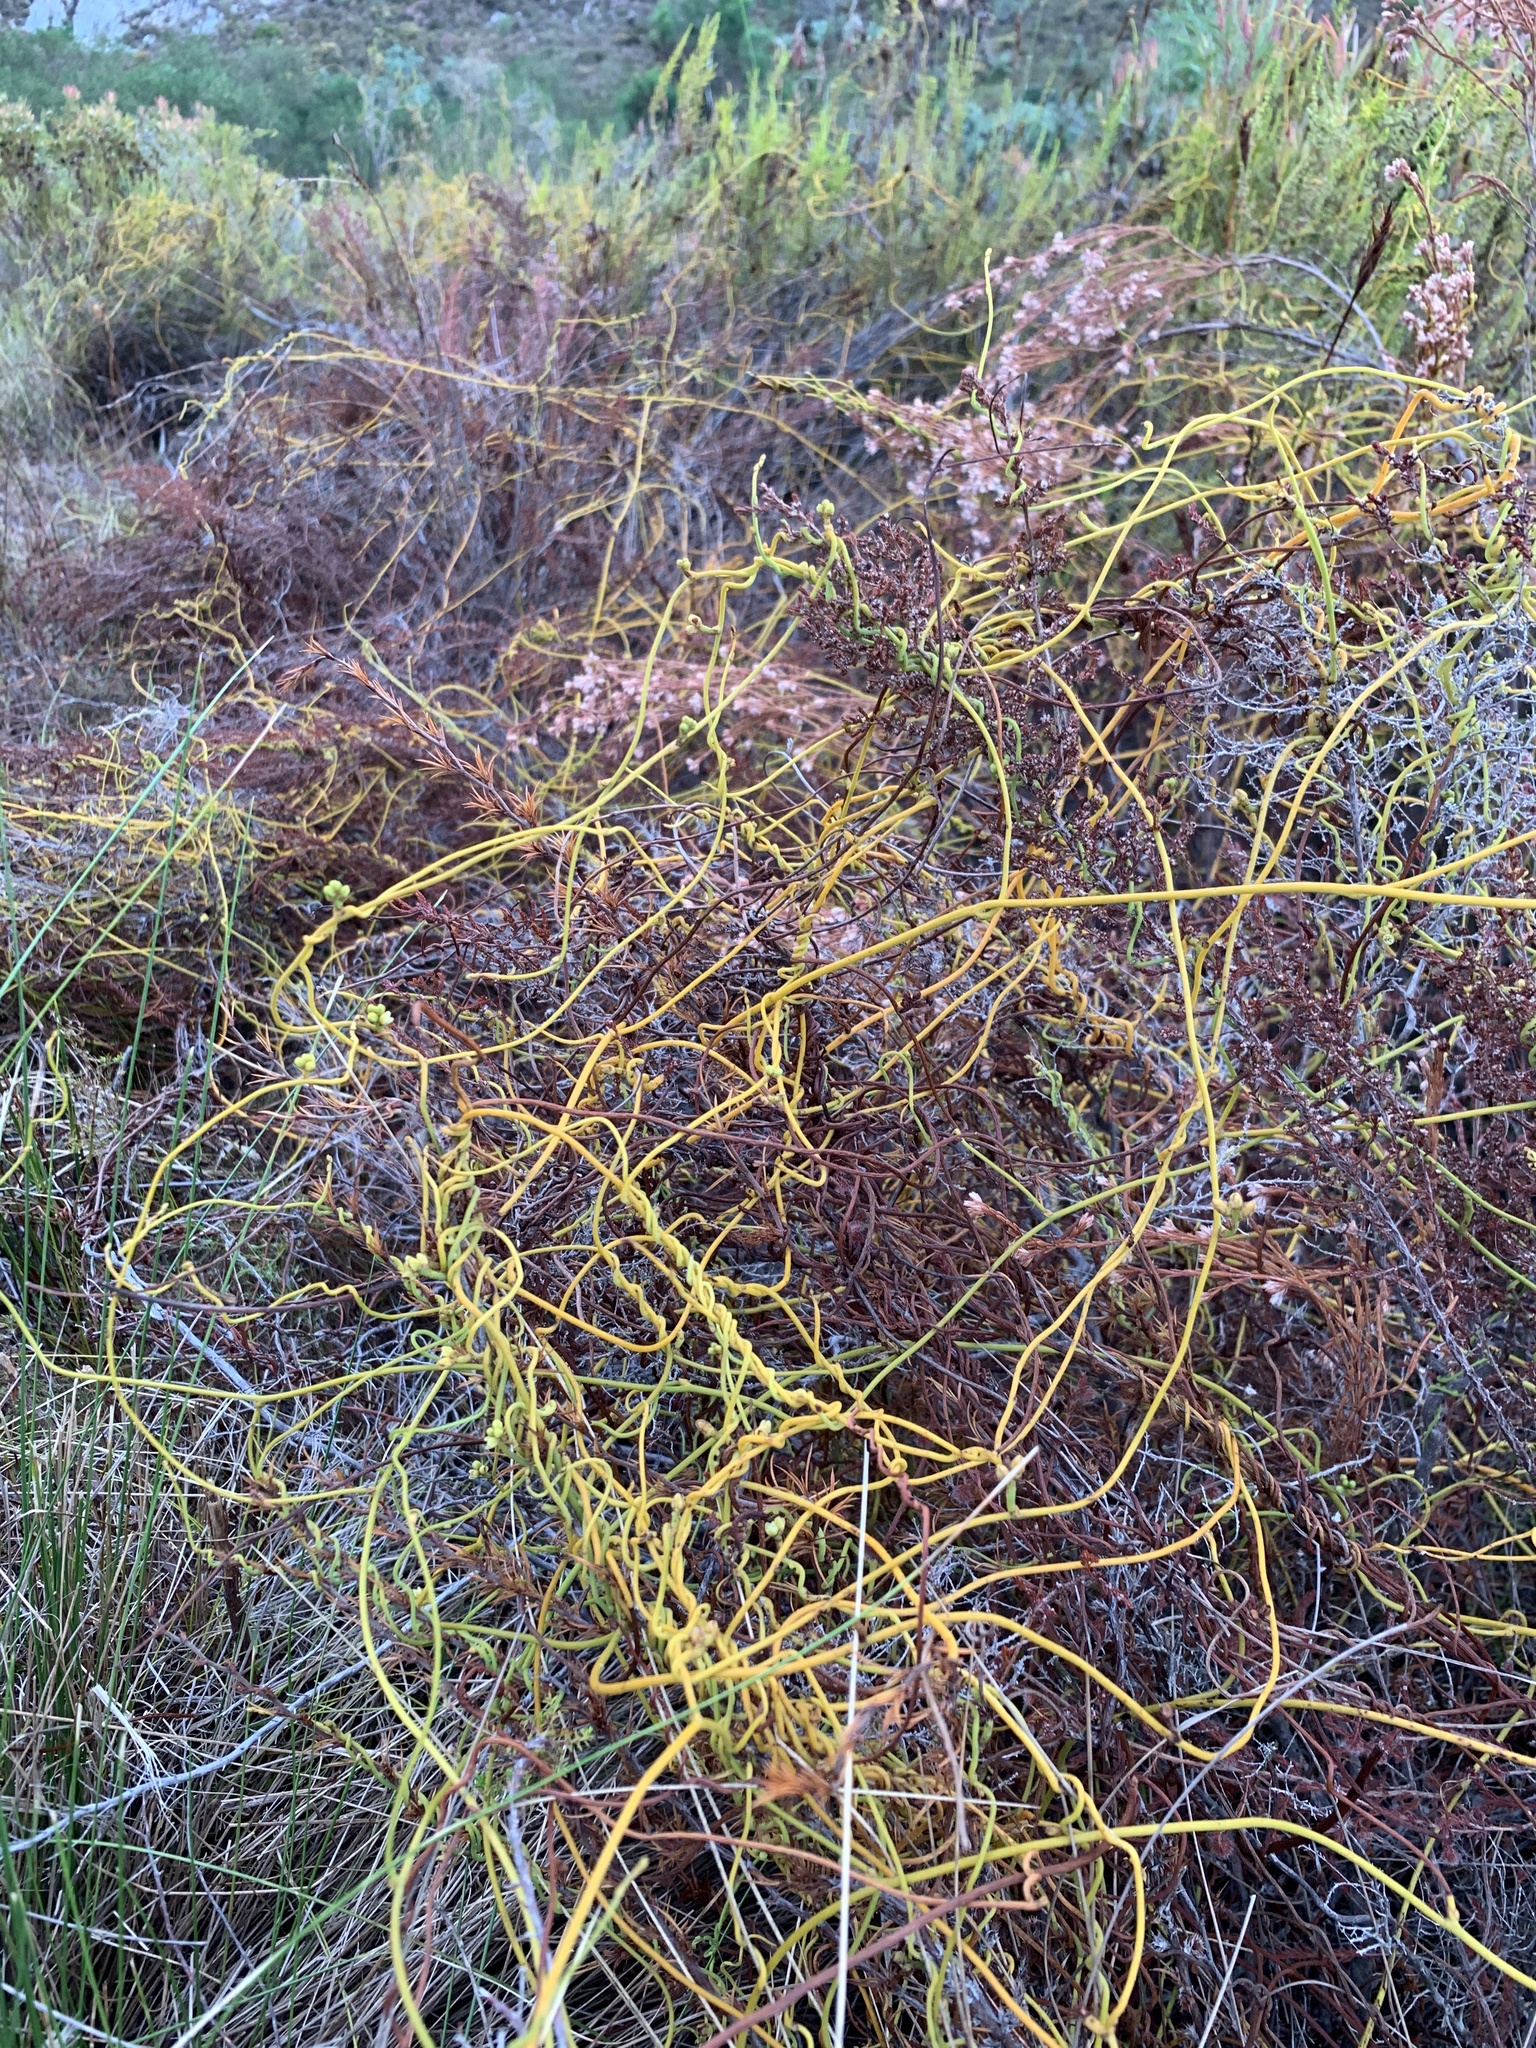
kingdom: Plantae
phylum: Tracheophyta
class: Magnoliopsida
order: Laurales
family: Lauraceae
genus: Cassytha
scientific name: Cassytha ciliolata
